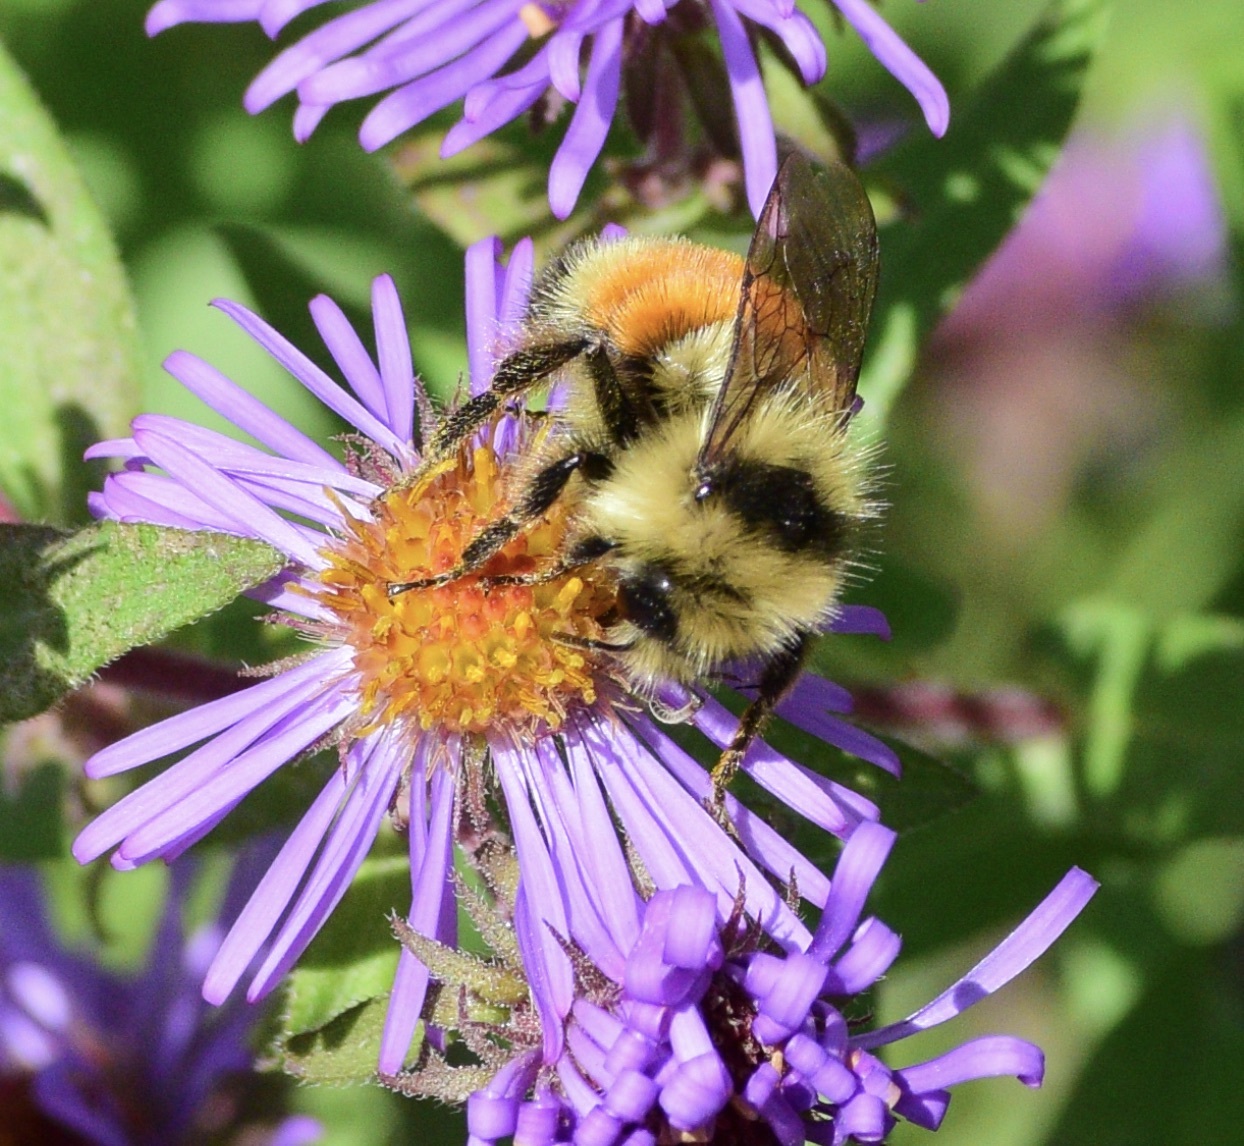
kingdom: Animalia
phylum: Arthropoda
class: Insecta
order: Hymenoptera
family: Apidae
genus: Bombus
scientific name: Bombus ternarius
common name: Tri-colored bumble bee
